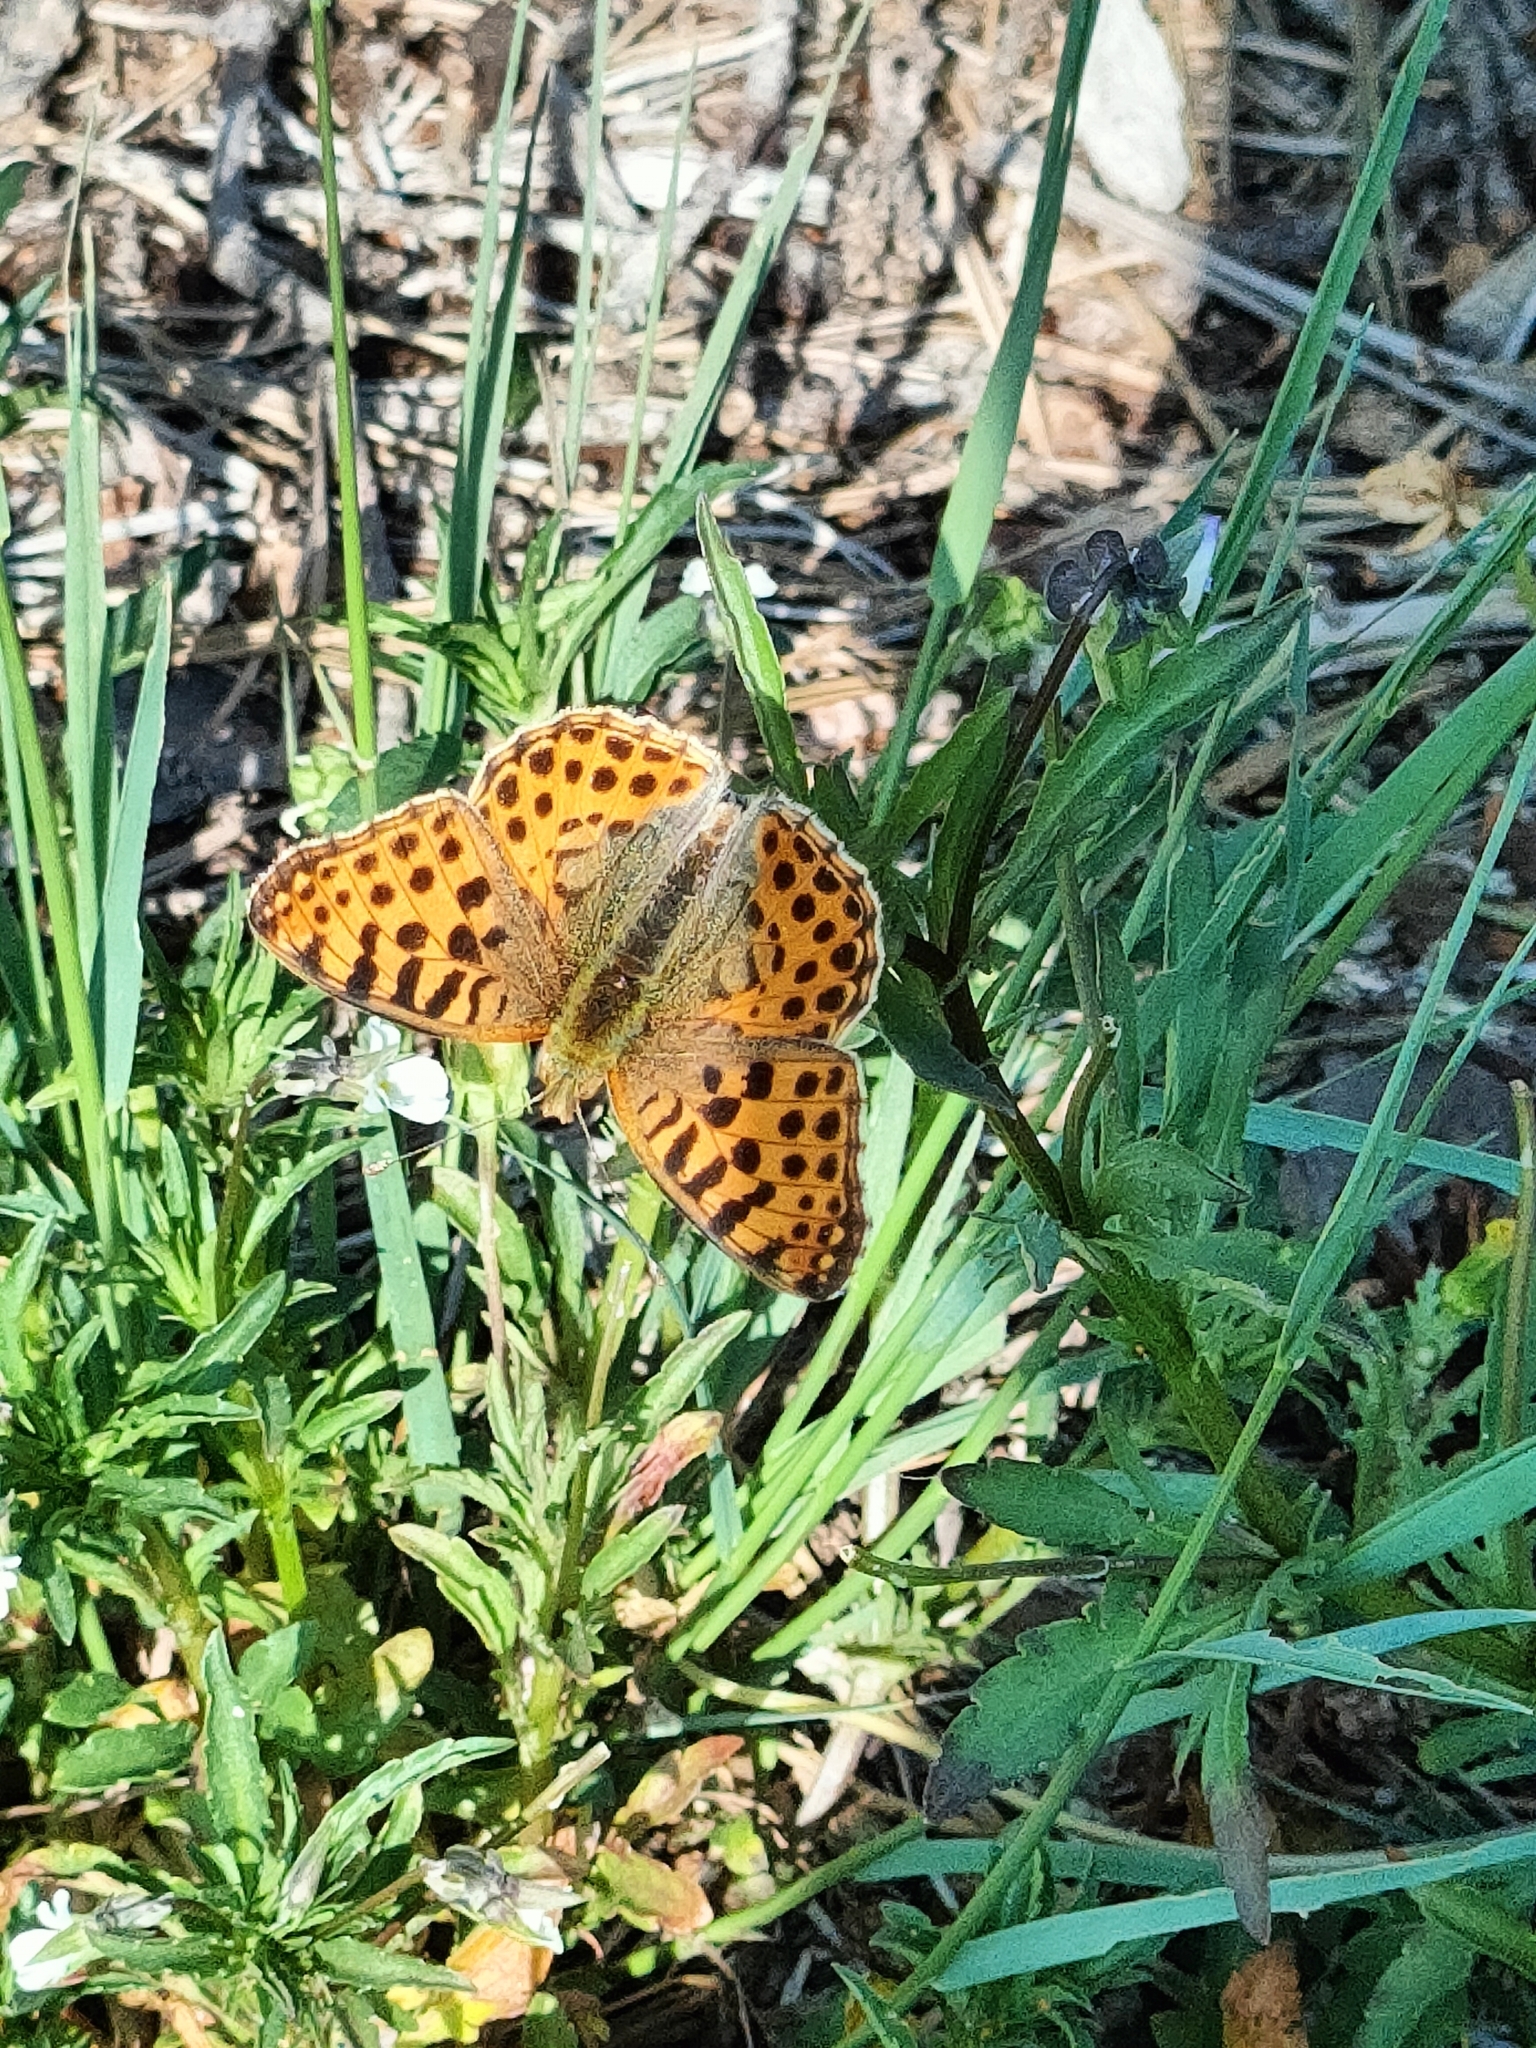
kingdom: Animalia
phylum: Arthropoda
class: Insecta
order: Lepidoptera
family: Nymphalidae
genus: Issoria
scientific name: Issoria lathonia
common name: Queen of spain fritillary
